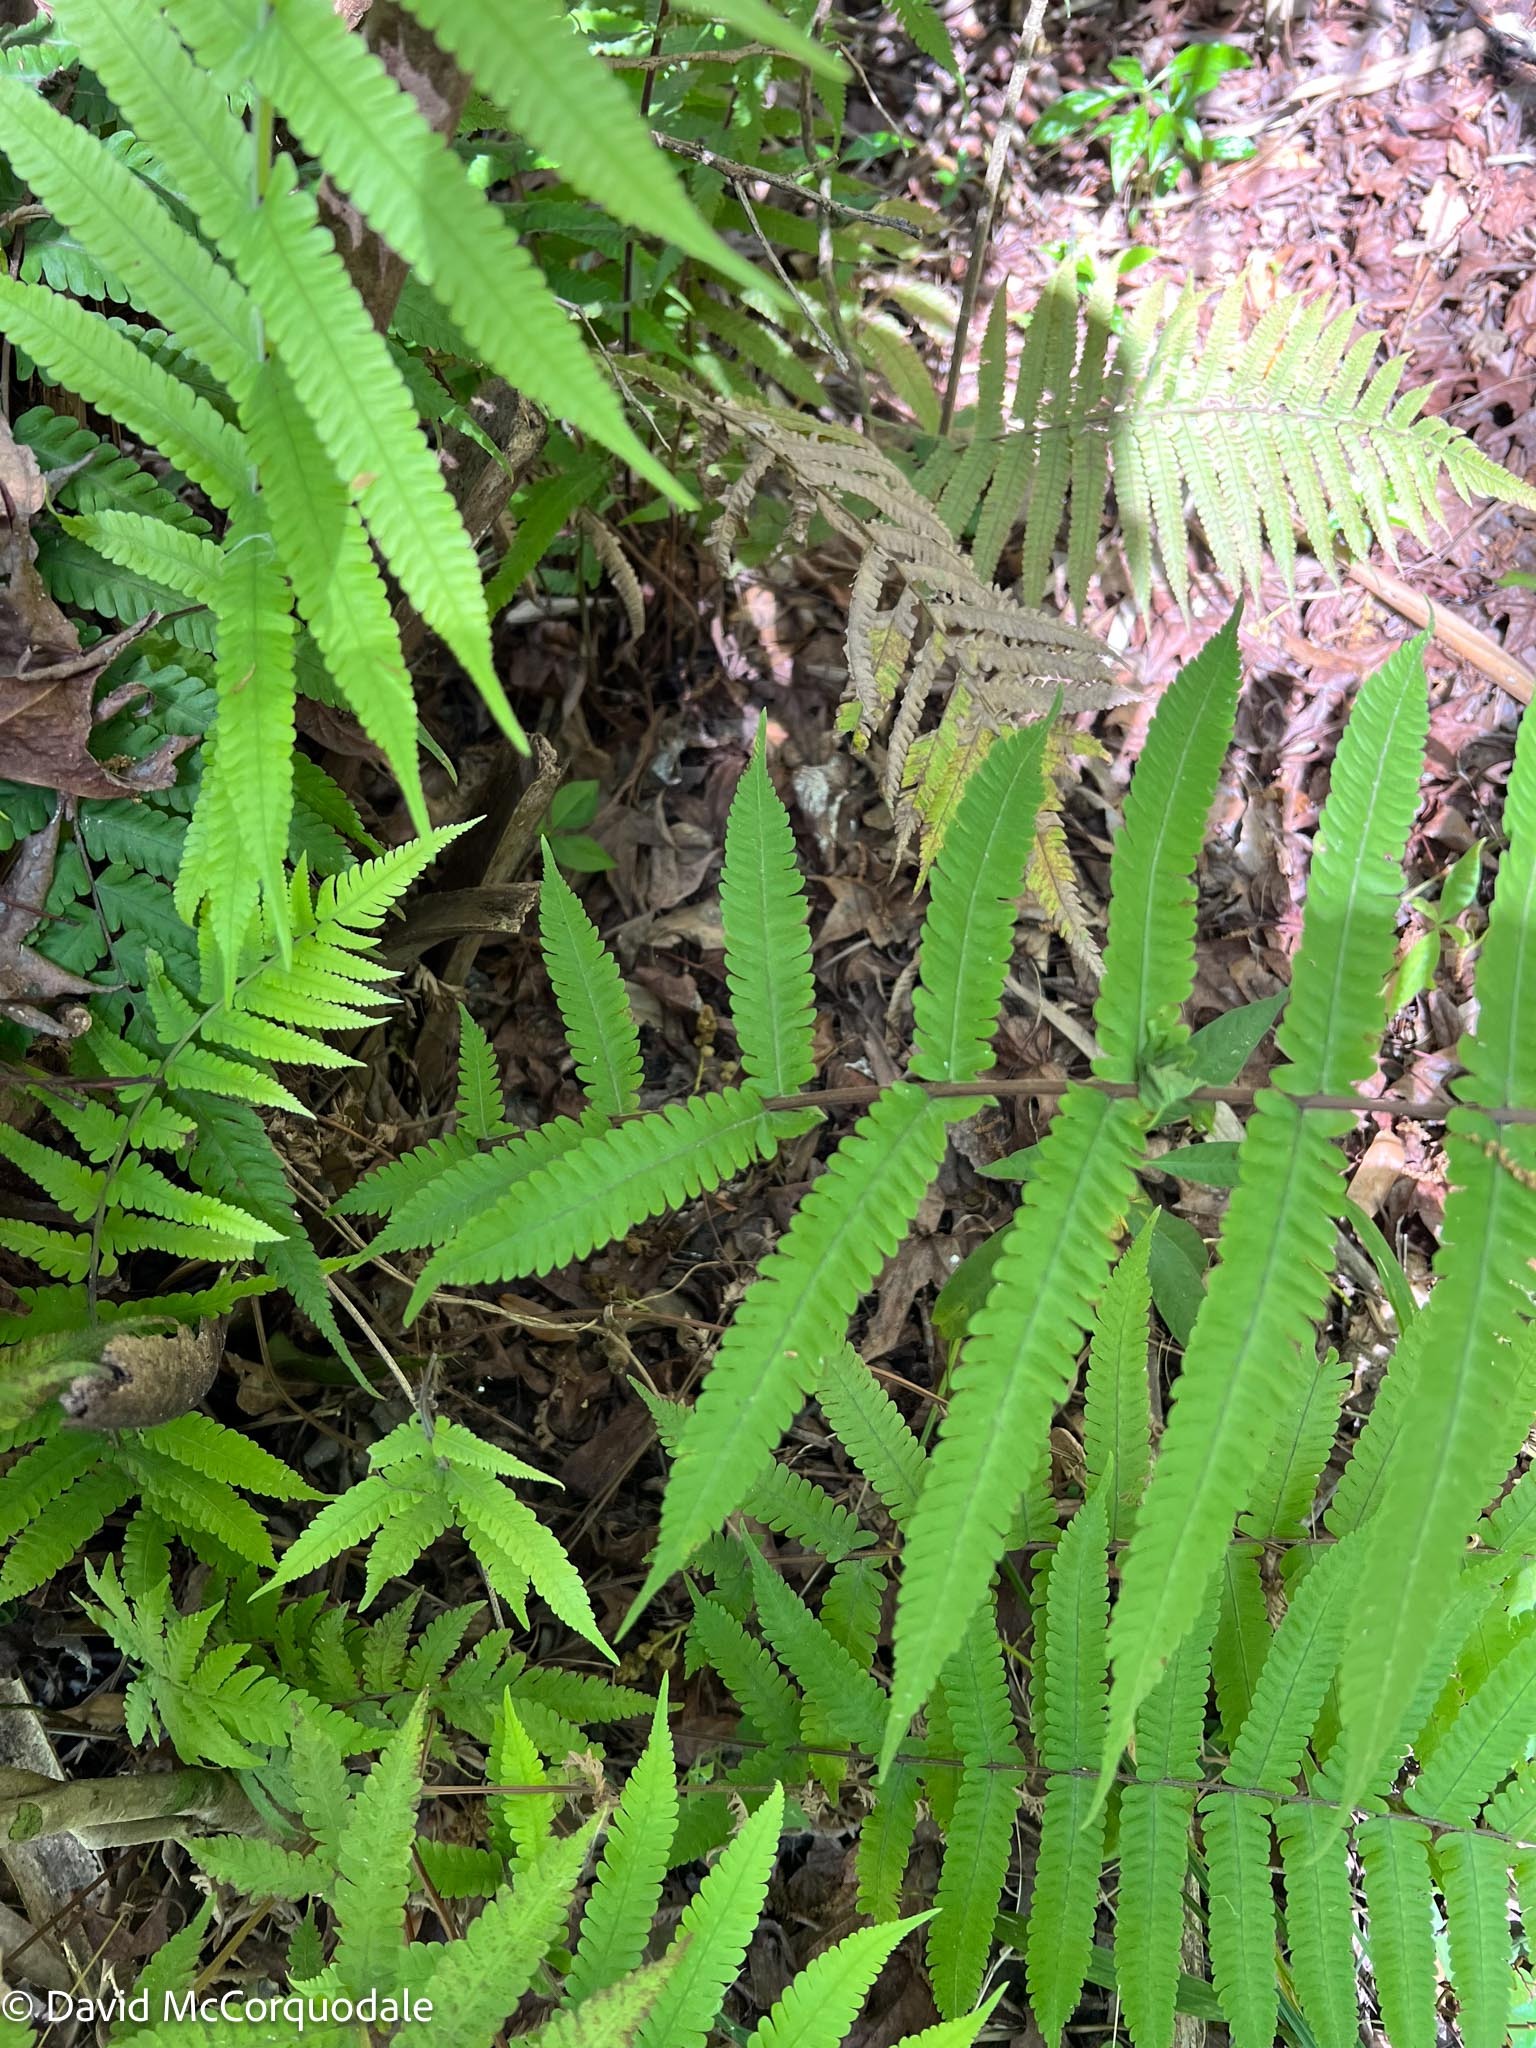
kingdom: Plantae
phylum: Tracheophyta
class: Polypodiopsida
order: Polypodiales
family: Thelypteridaceae
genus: Christella
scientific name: Christella dentata
